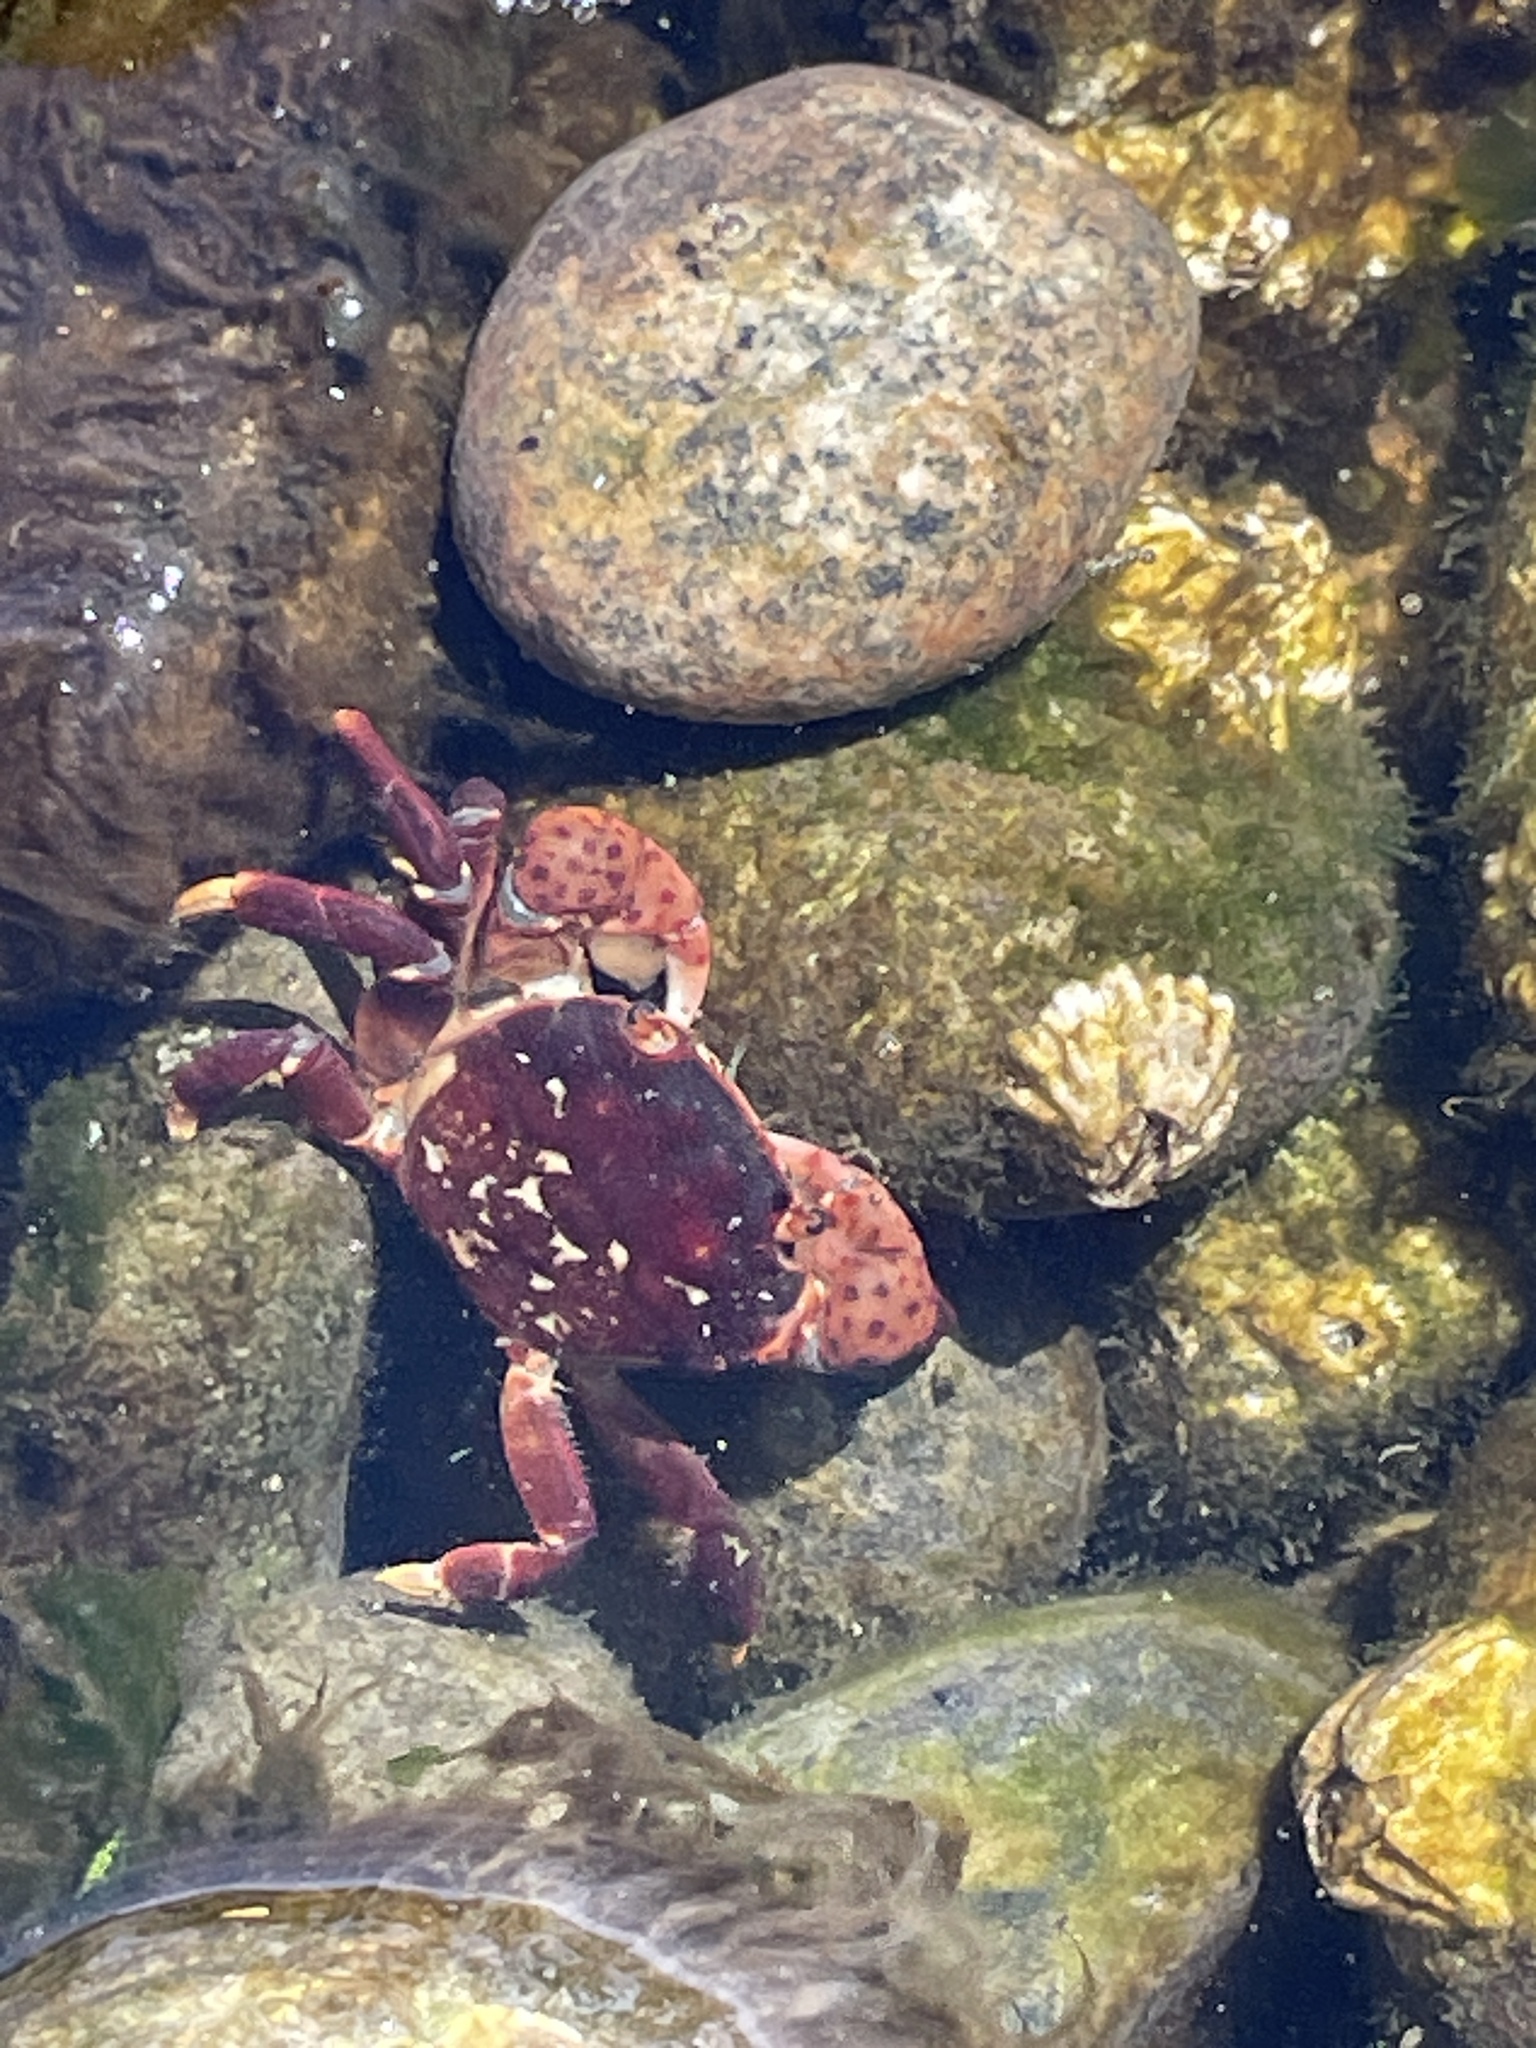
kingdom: Animalia
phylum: Arthropoda
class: Malacostraca
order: Decapoda
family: Varunidae
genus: Hemigrapsus
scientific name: Hemigrapsus nudus
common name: Purple shore crab
